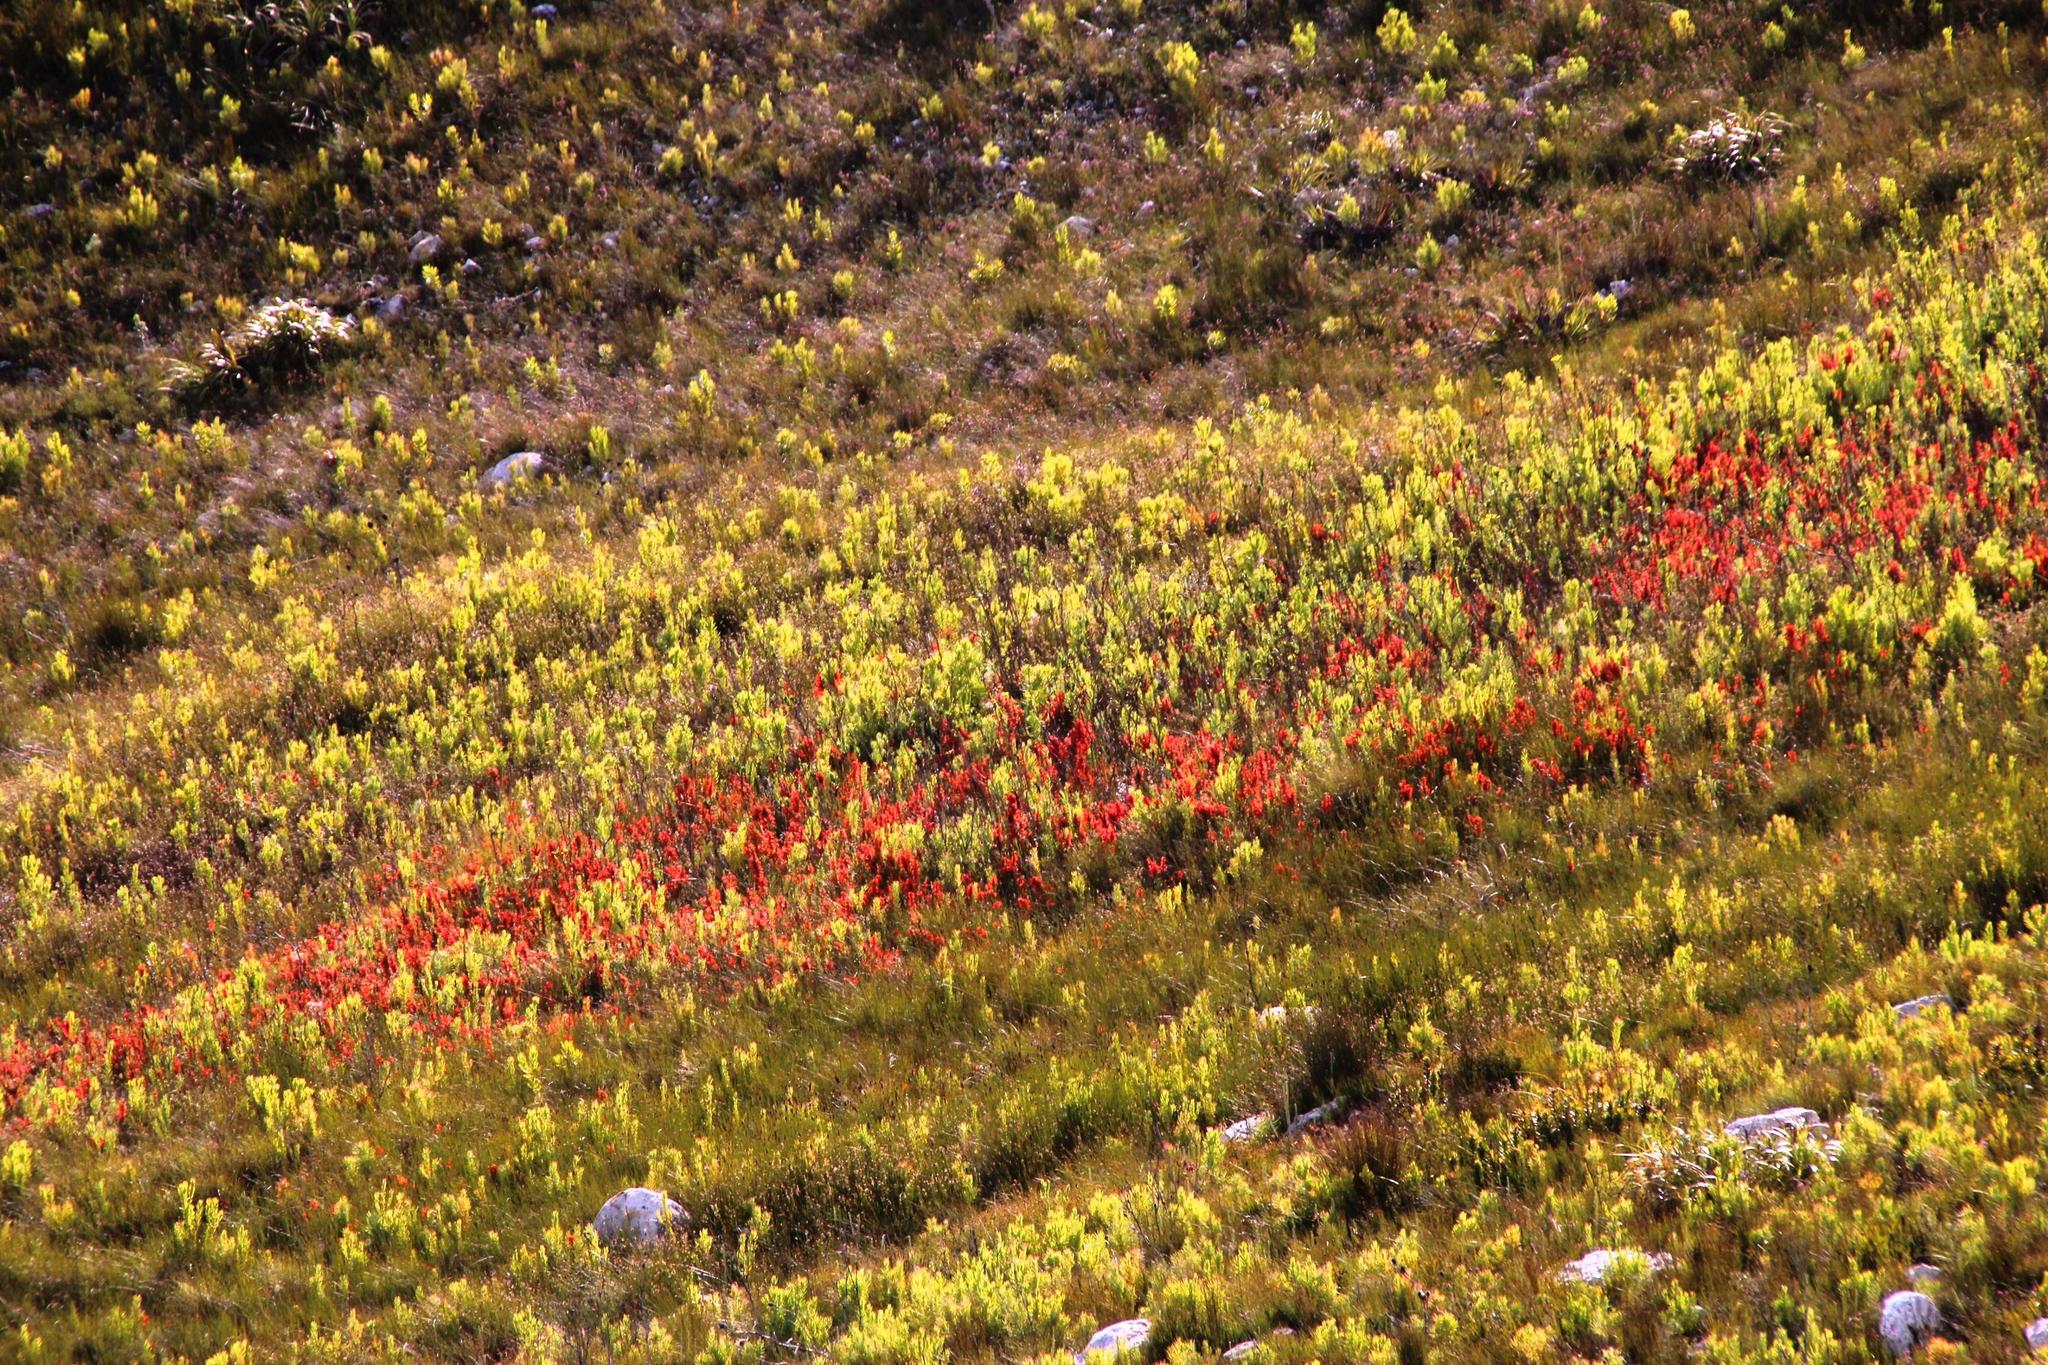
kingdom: Plantae
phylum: Tracheophyta
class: Magnoliopsida
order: Ericales
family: Ericaceae
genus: Erica
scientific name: Erica pillansii
